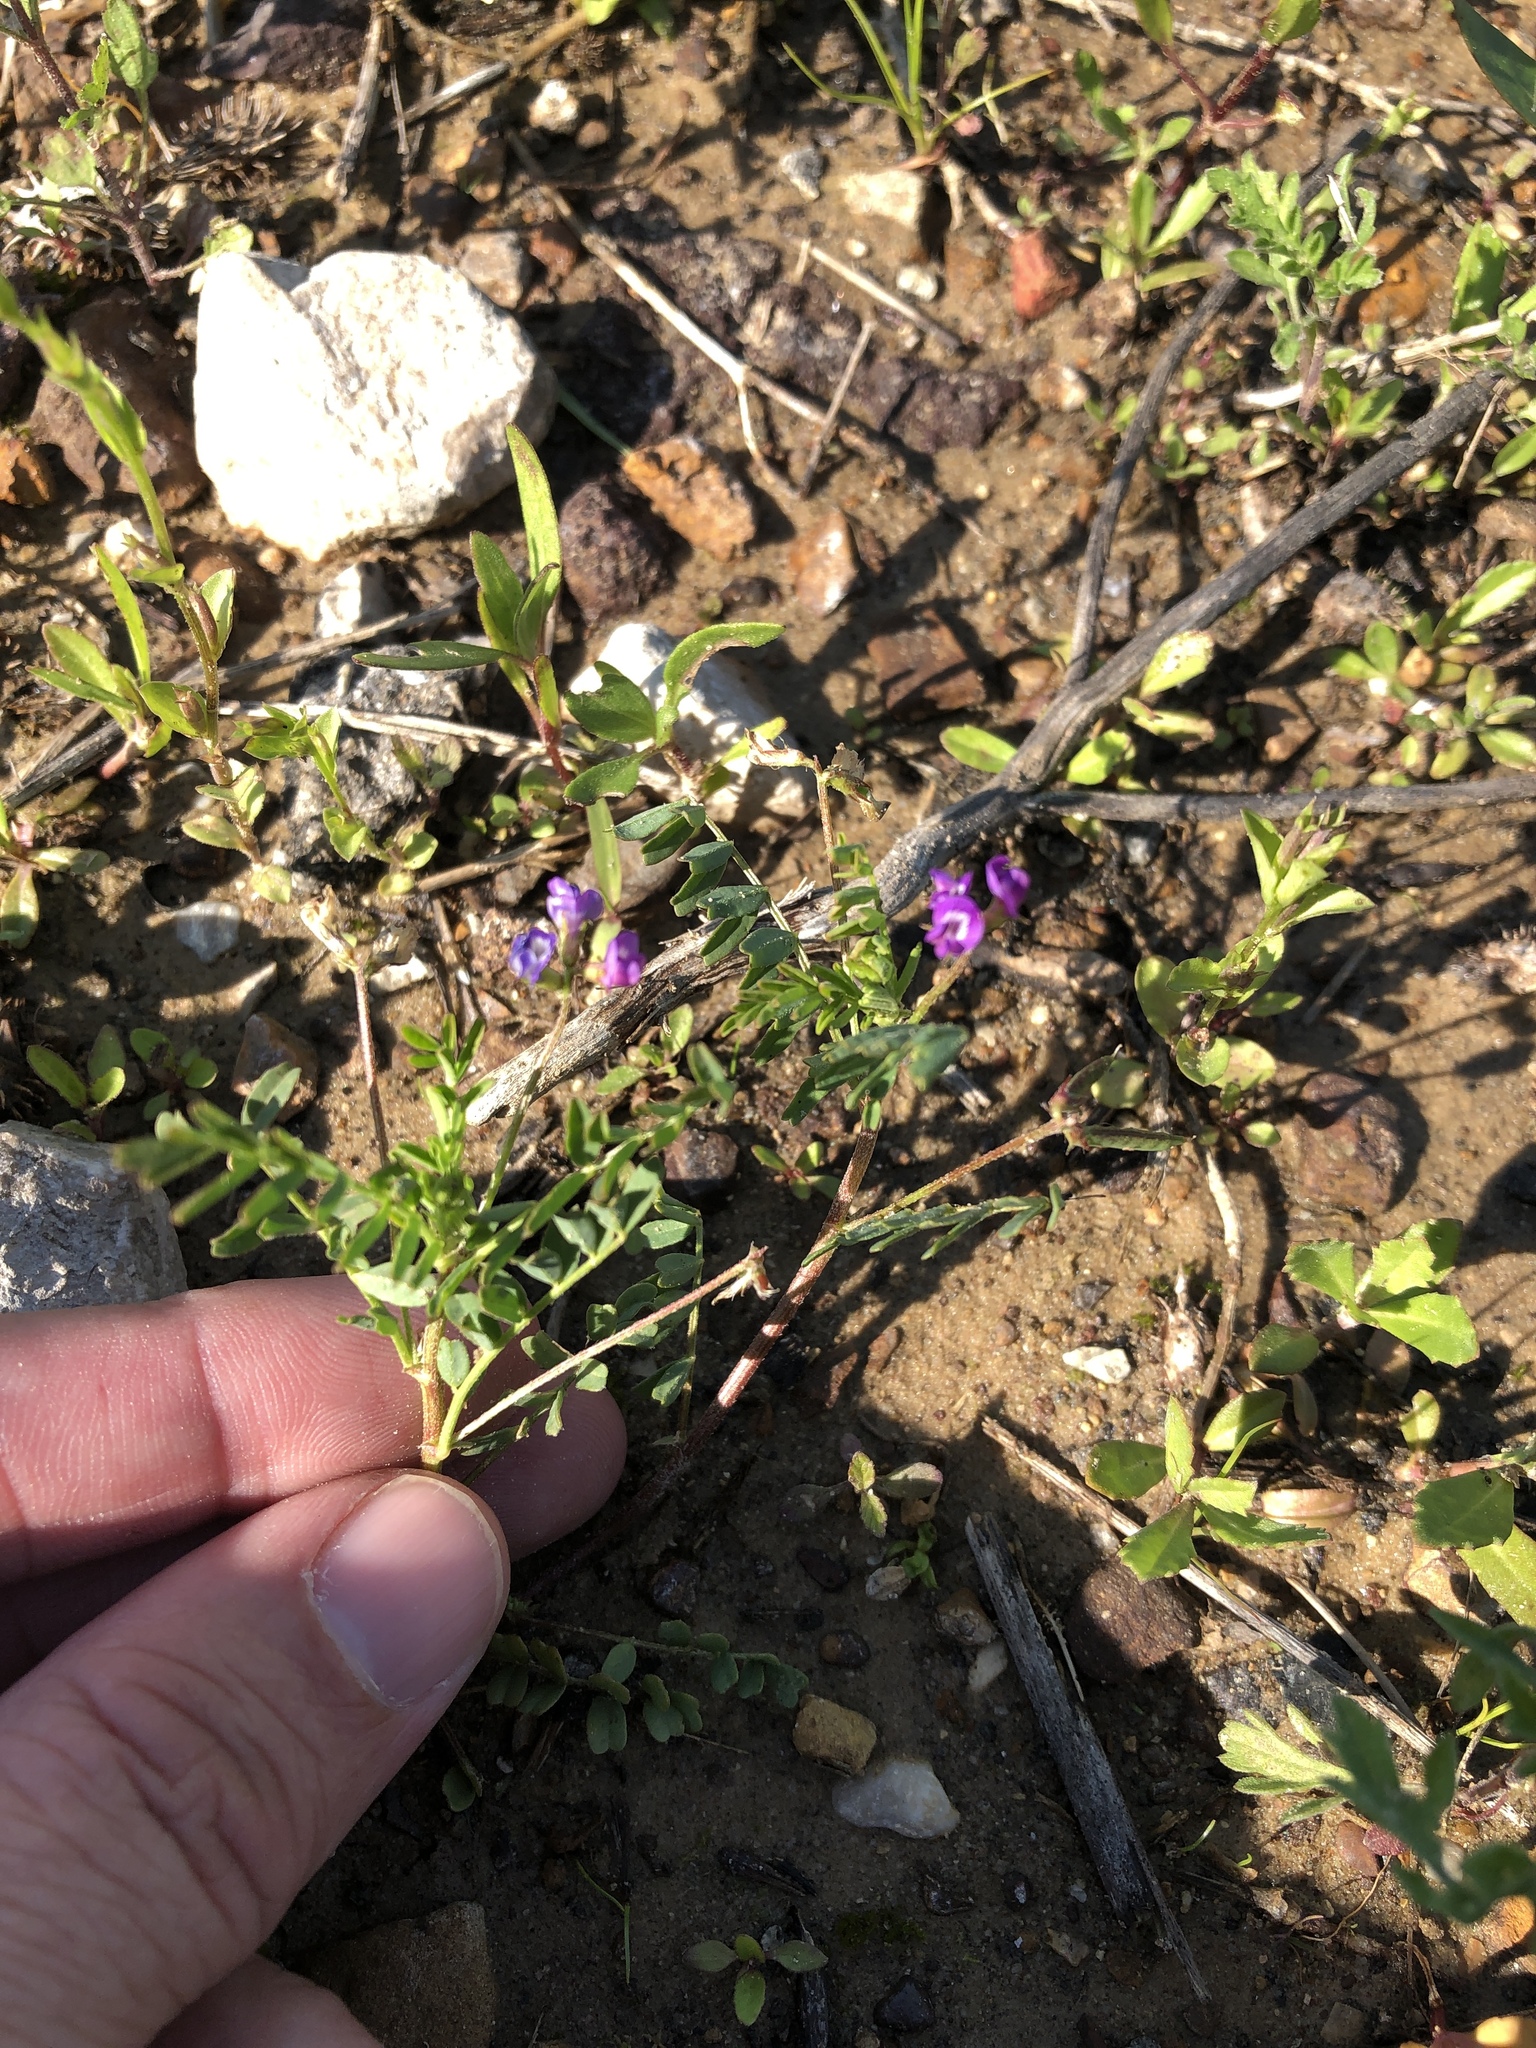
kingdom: Plantae
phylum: Tracheophyta
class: Magnoliopsida
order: Fabales
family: Fabaceae
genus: Astragalus
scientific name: Astragalus nuttallianus
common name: Smallflowered milkvetch
